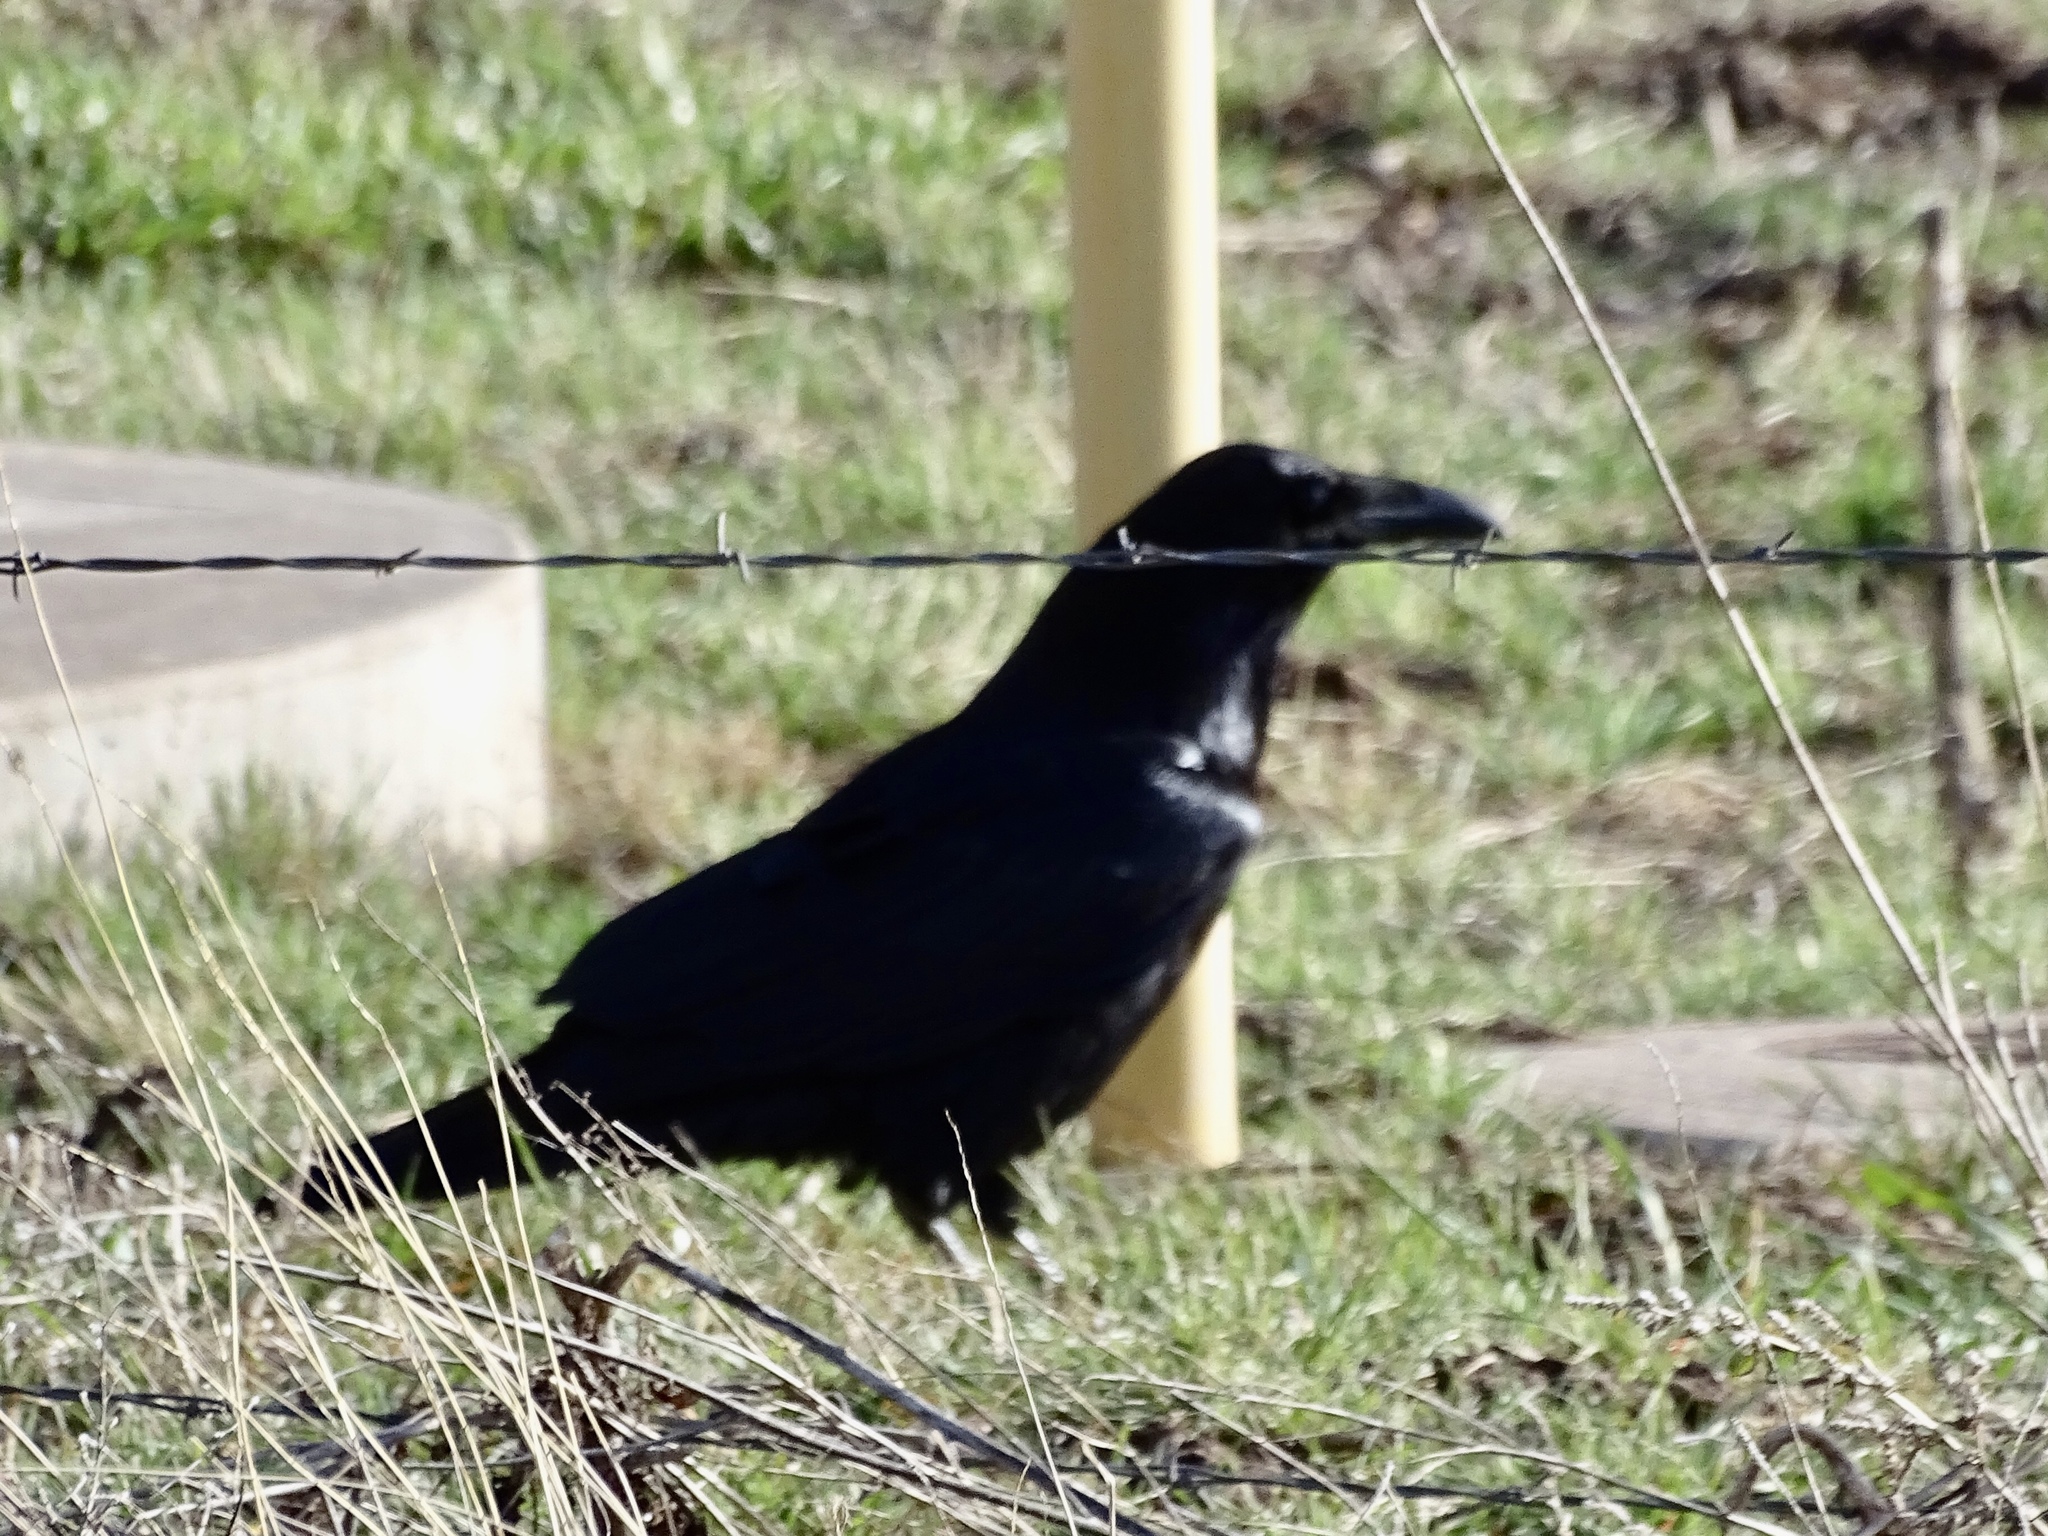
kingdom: Animalia
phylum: Chordata
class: Aves
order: Passeriformes
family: Corvidae
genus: Corvus
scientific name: Corvus corax
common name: Common raven
